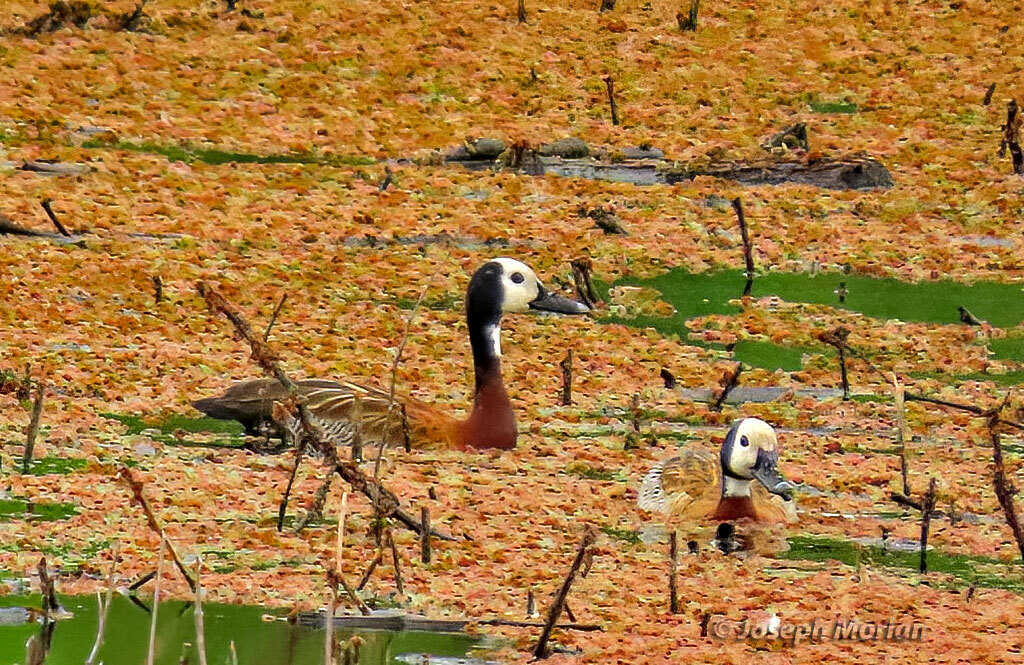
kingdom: Animalia
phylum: Chordata
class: Aves
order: Anseriformes
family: Anatidae
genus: Dendrocygna
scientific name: Dendrocygna viduata
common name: White-faced whistling duck
